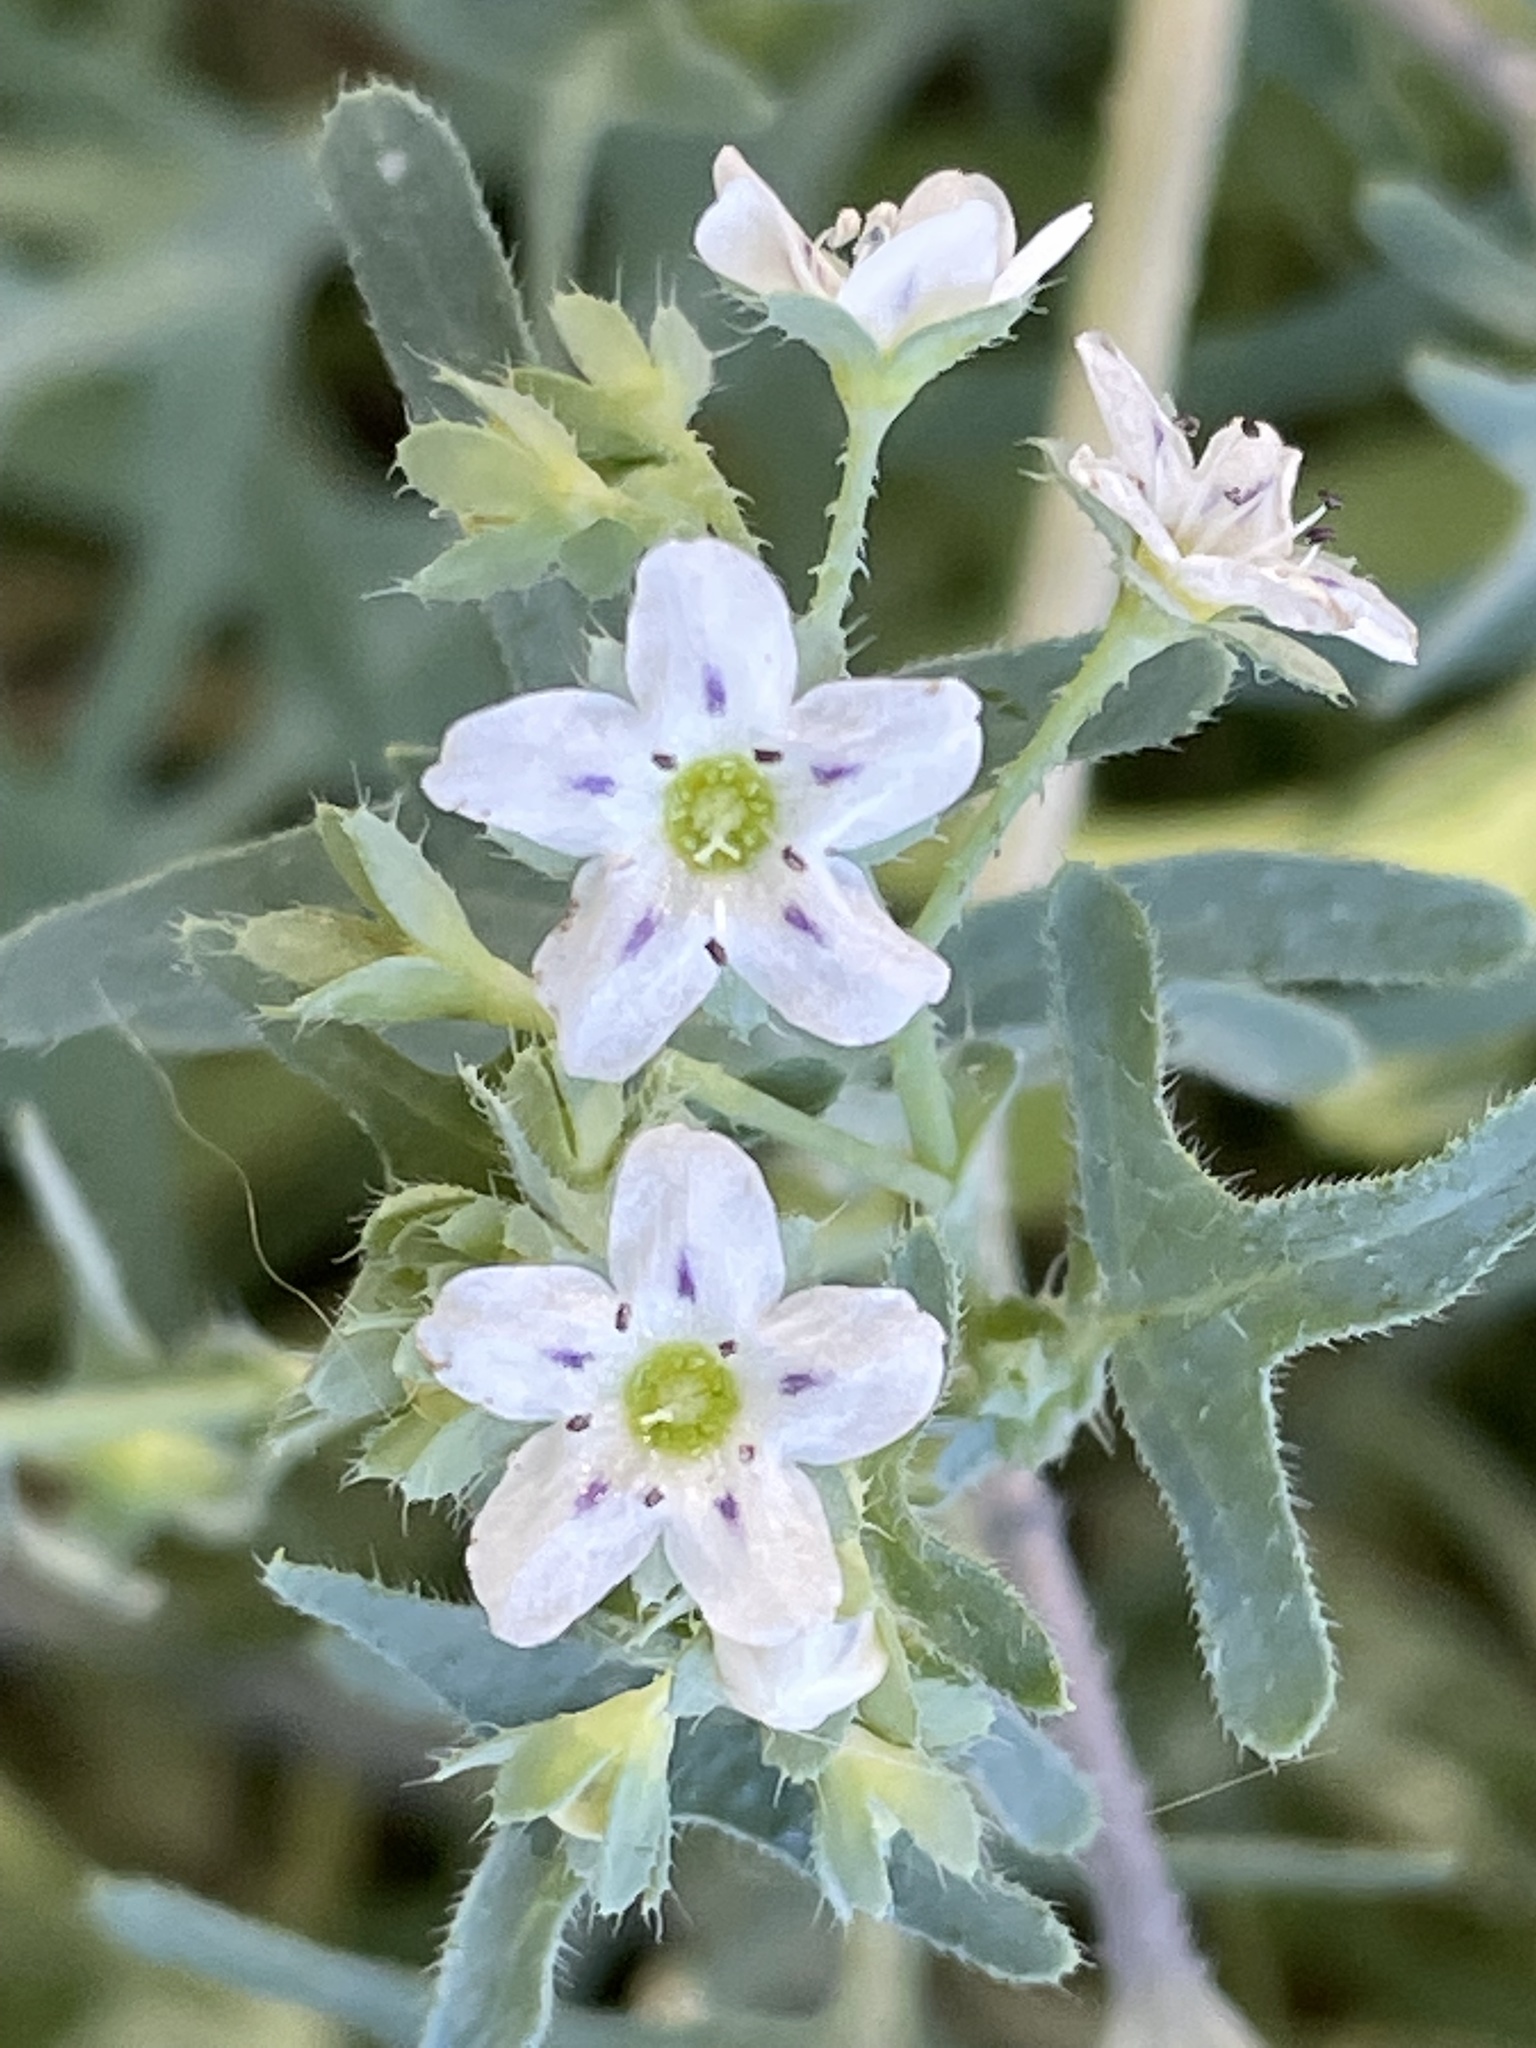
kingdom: Plantae
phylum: Tracheophyta
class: Magnoliopsida
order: Boraginales
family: Hydrophyllaceae
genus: Pholistoma
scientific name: Pholistoma membranaceum
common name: White fiesta-flower
